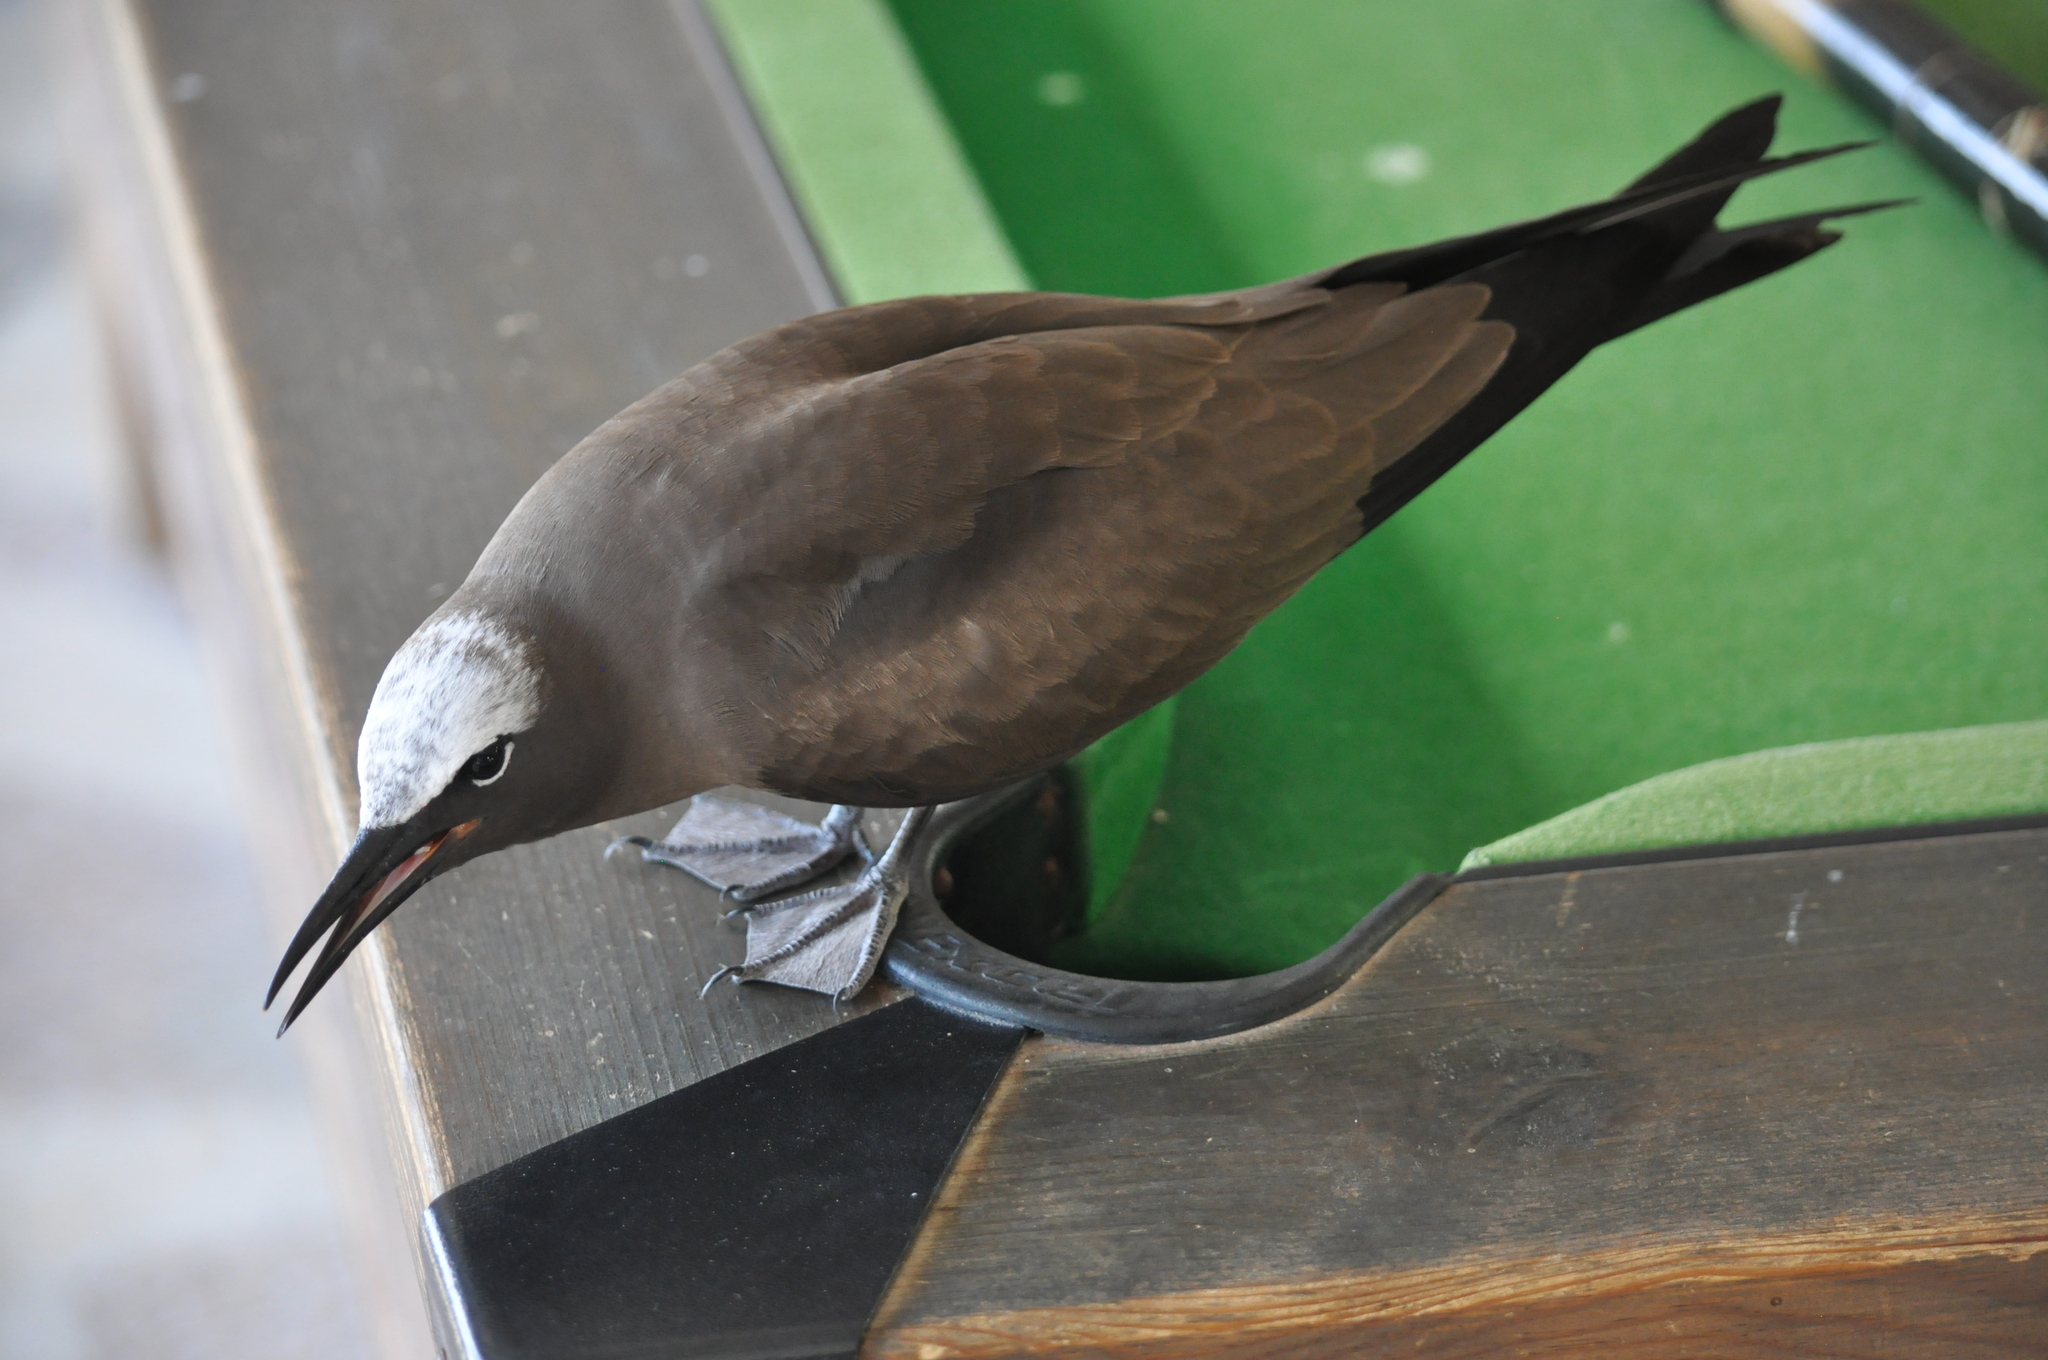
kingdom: Animalia
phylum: Chordata
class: Aves
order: Charadriiformes
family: Laridae
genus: Anous
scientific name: Anous stolidus
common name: Brown noddy
